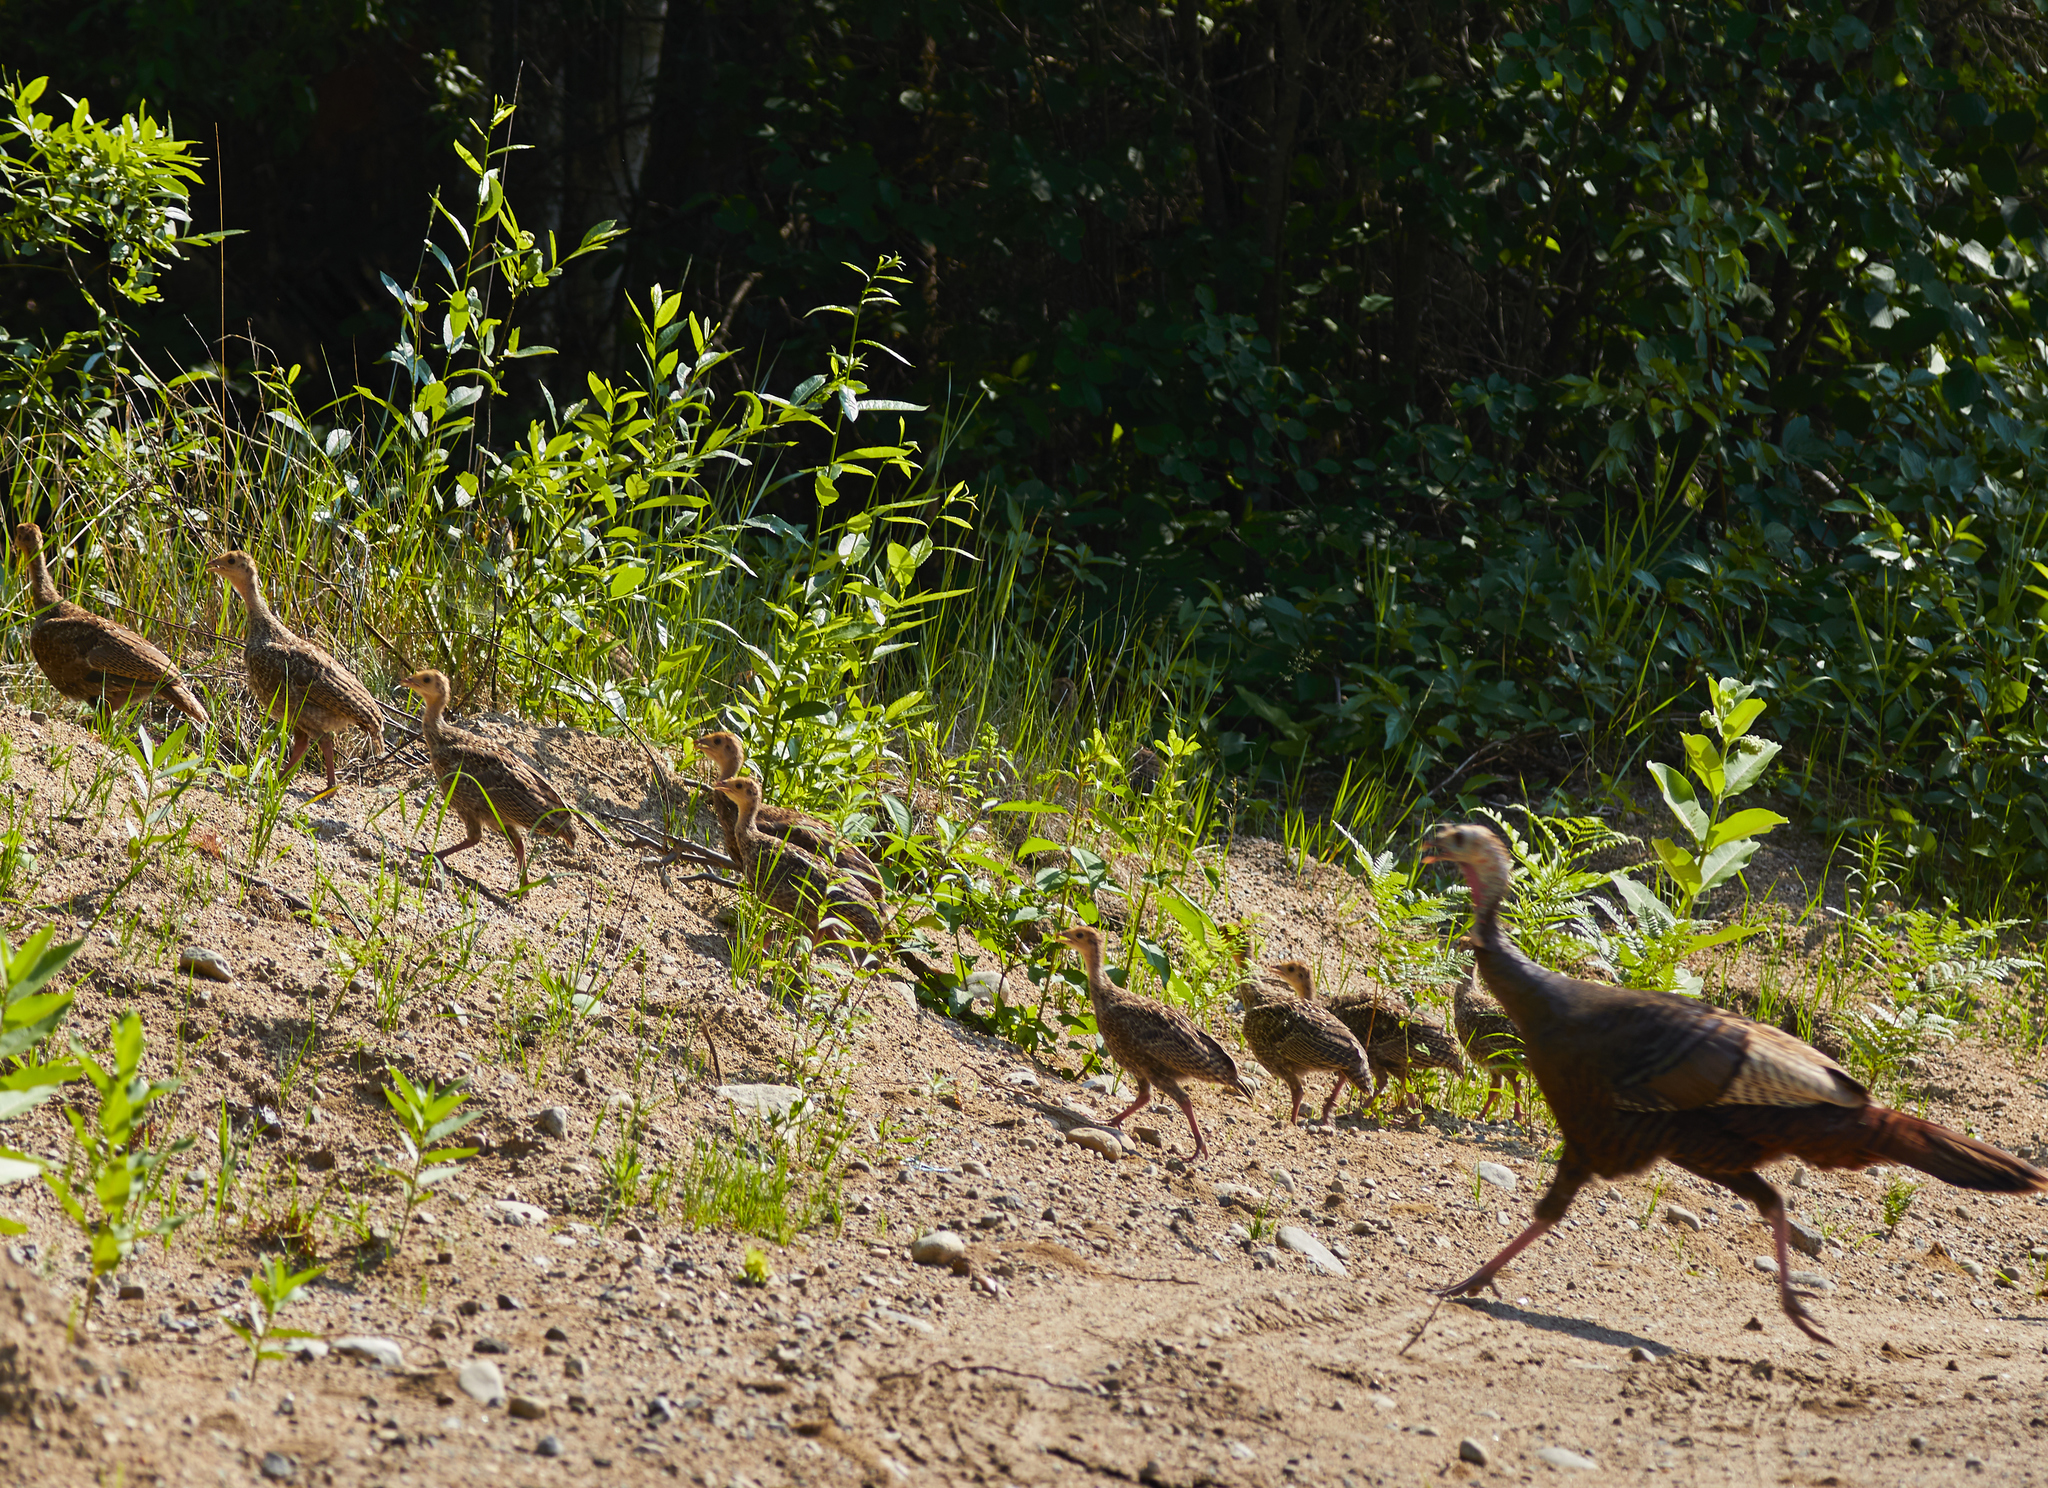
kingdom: Animalia
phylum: Chordata
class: Aves
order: Galliformes
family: Phasianidae
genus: Meleagris
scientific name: Meleagris gallopavo
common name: Wild turkey
